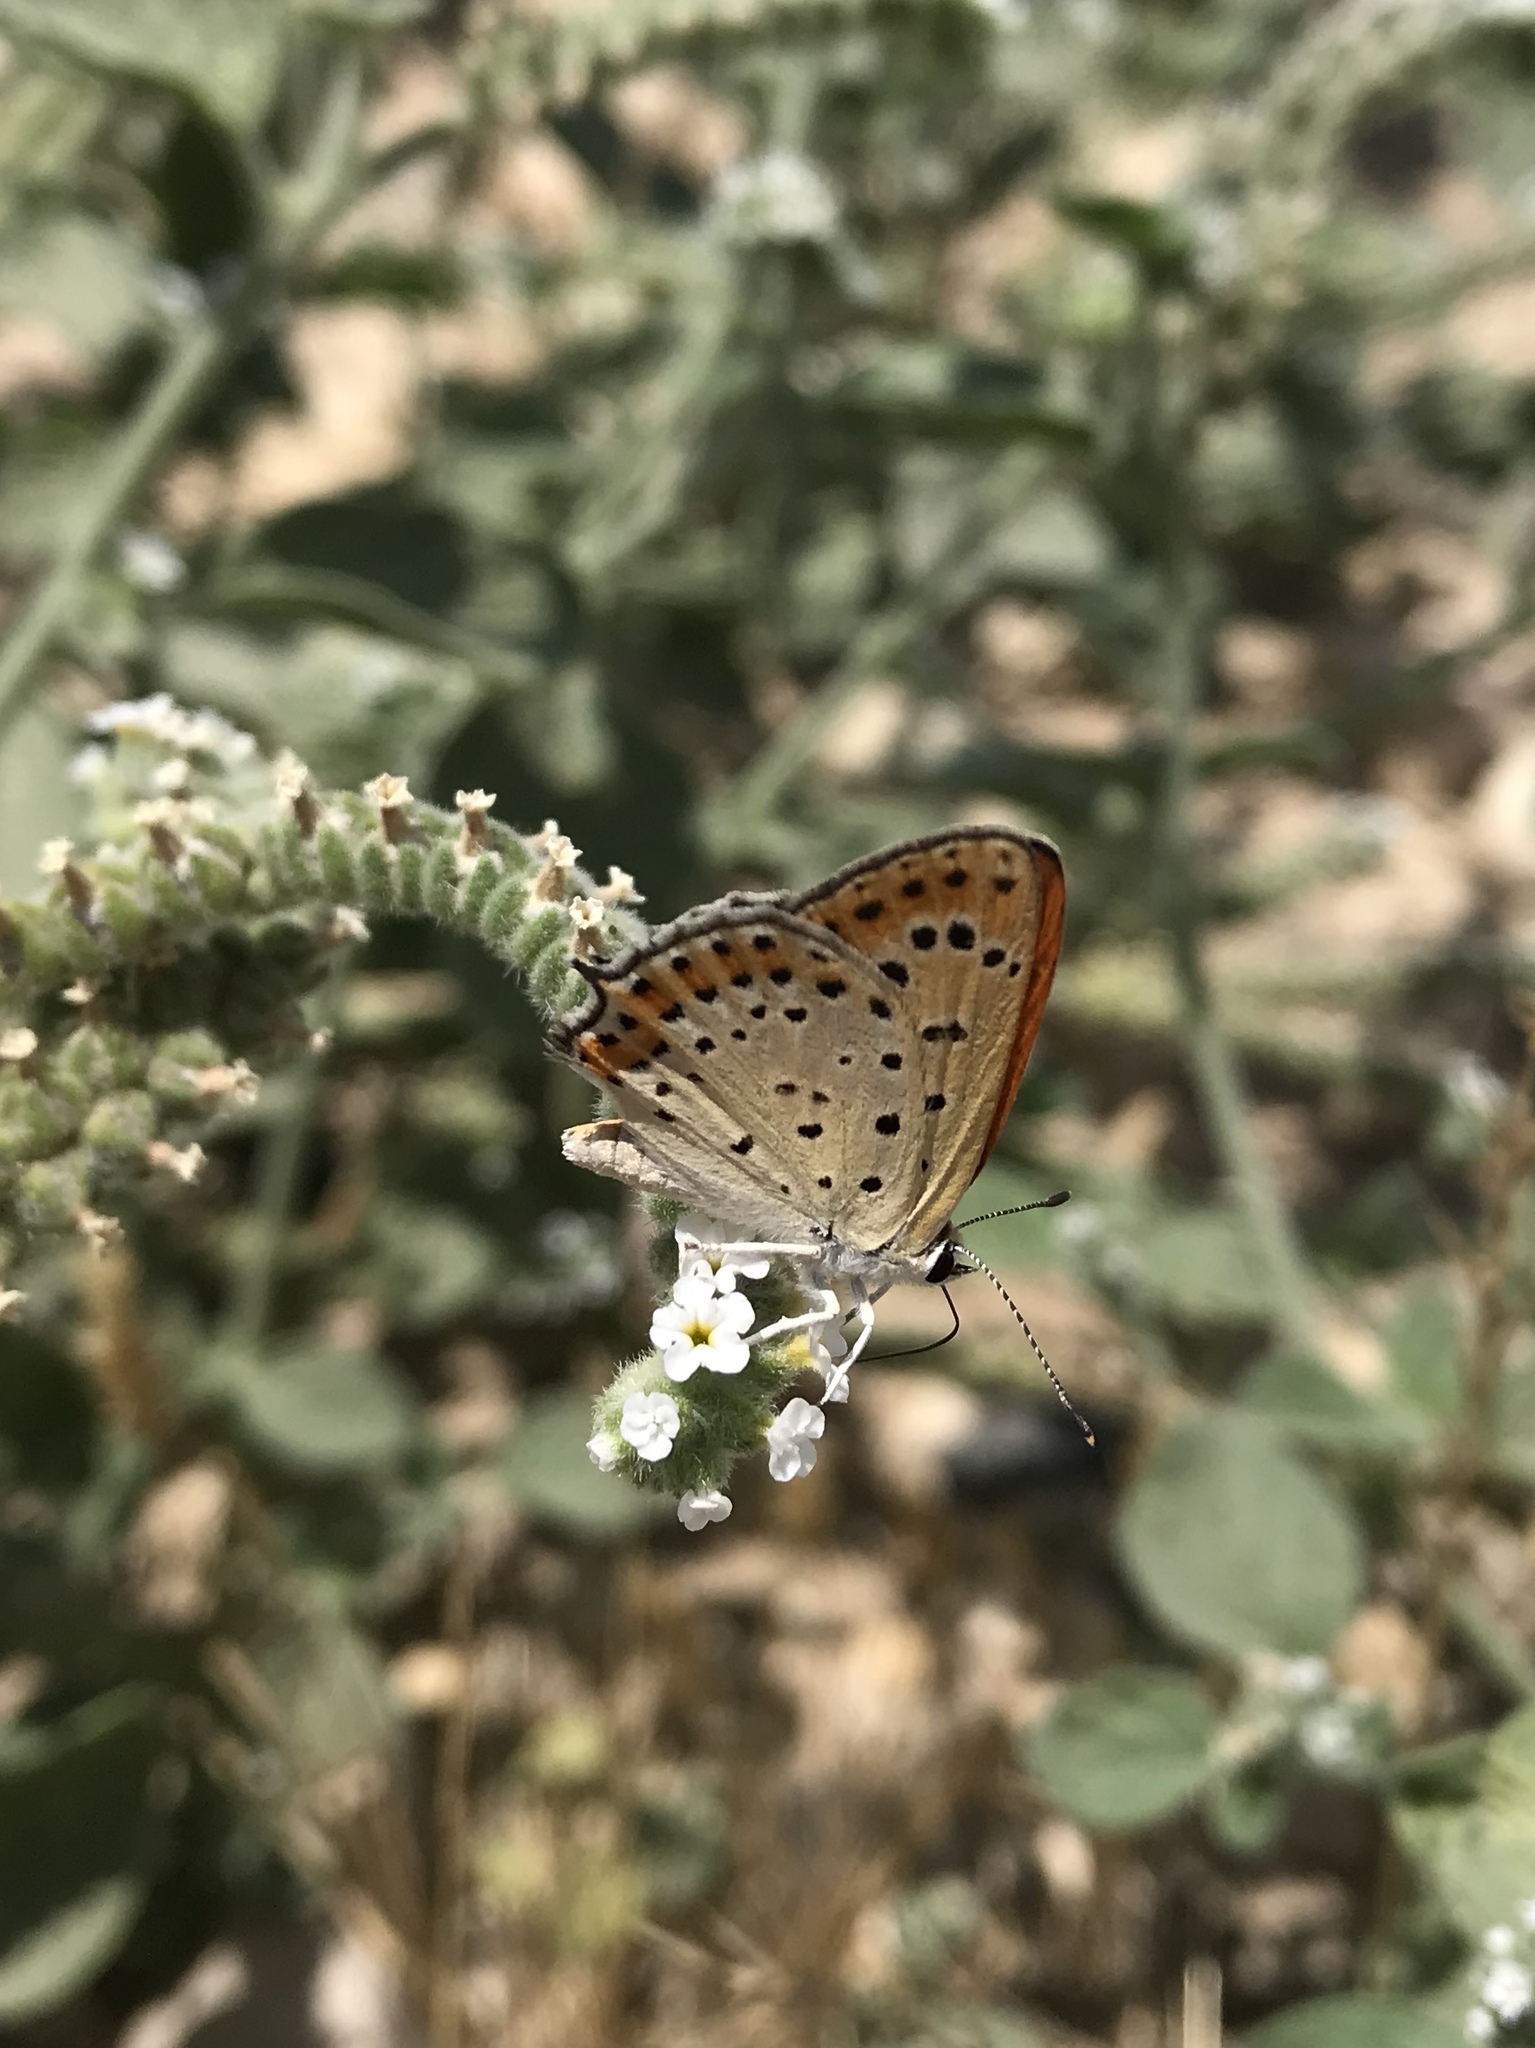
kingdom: Animalia
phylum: Arthropoda
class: Insecta
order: Lepidoptera
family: Lycaenidae
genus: Thersamonia
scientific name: Thersamonia thersamon
